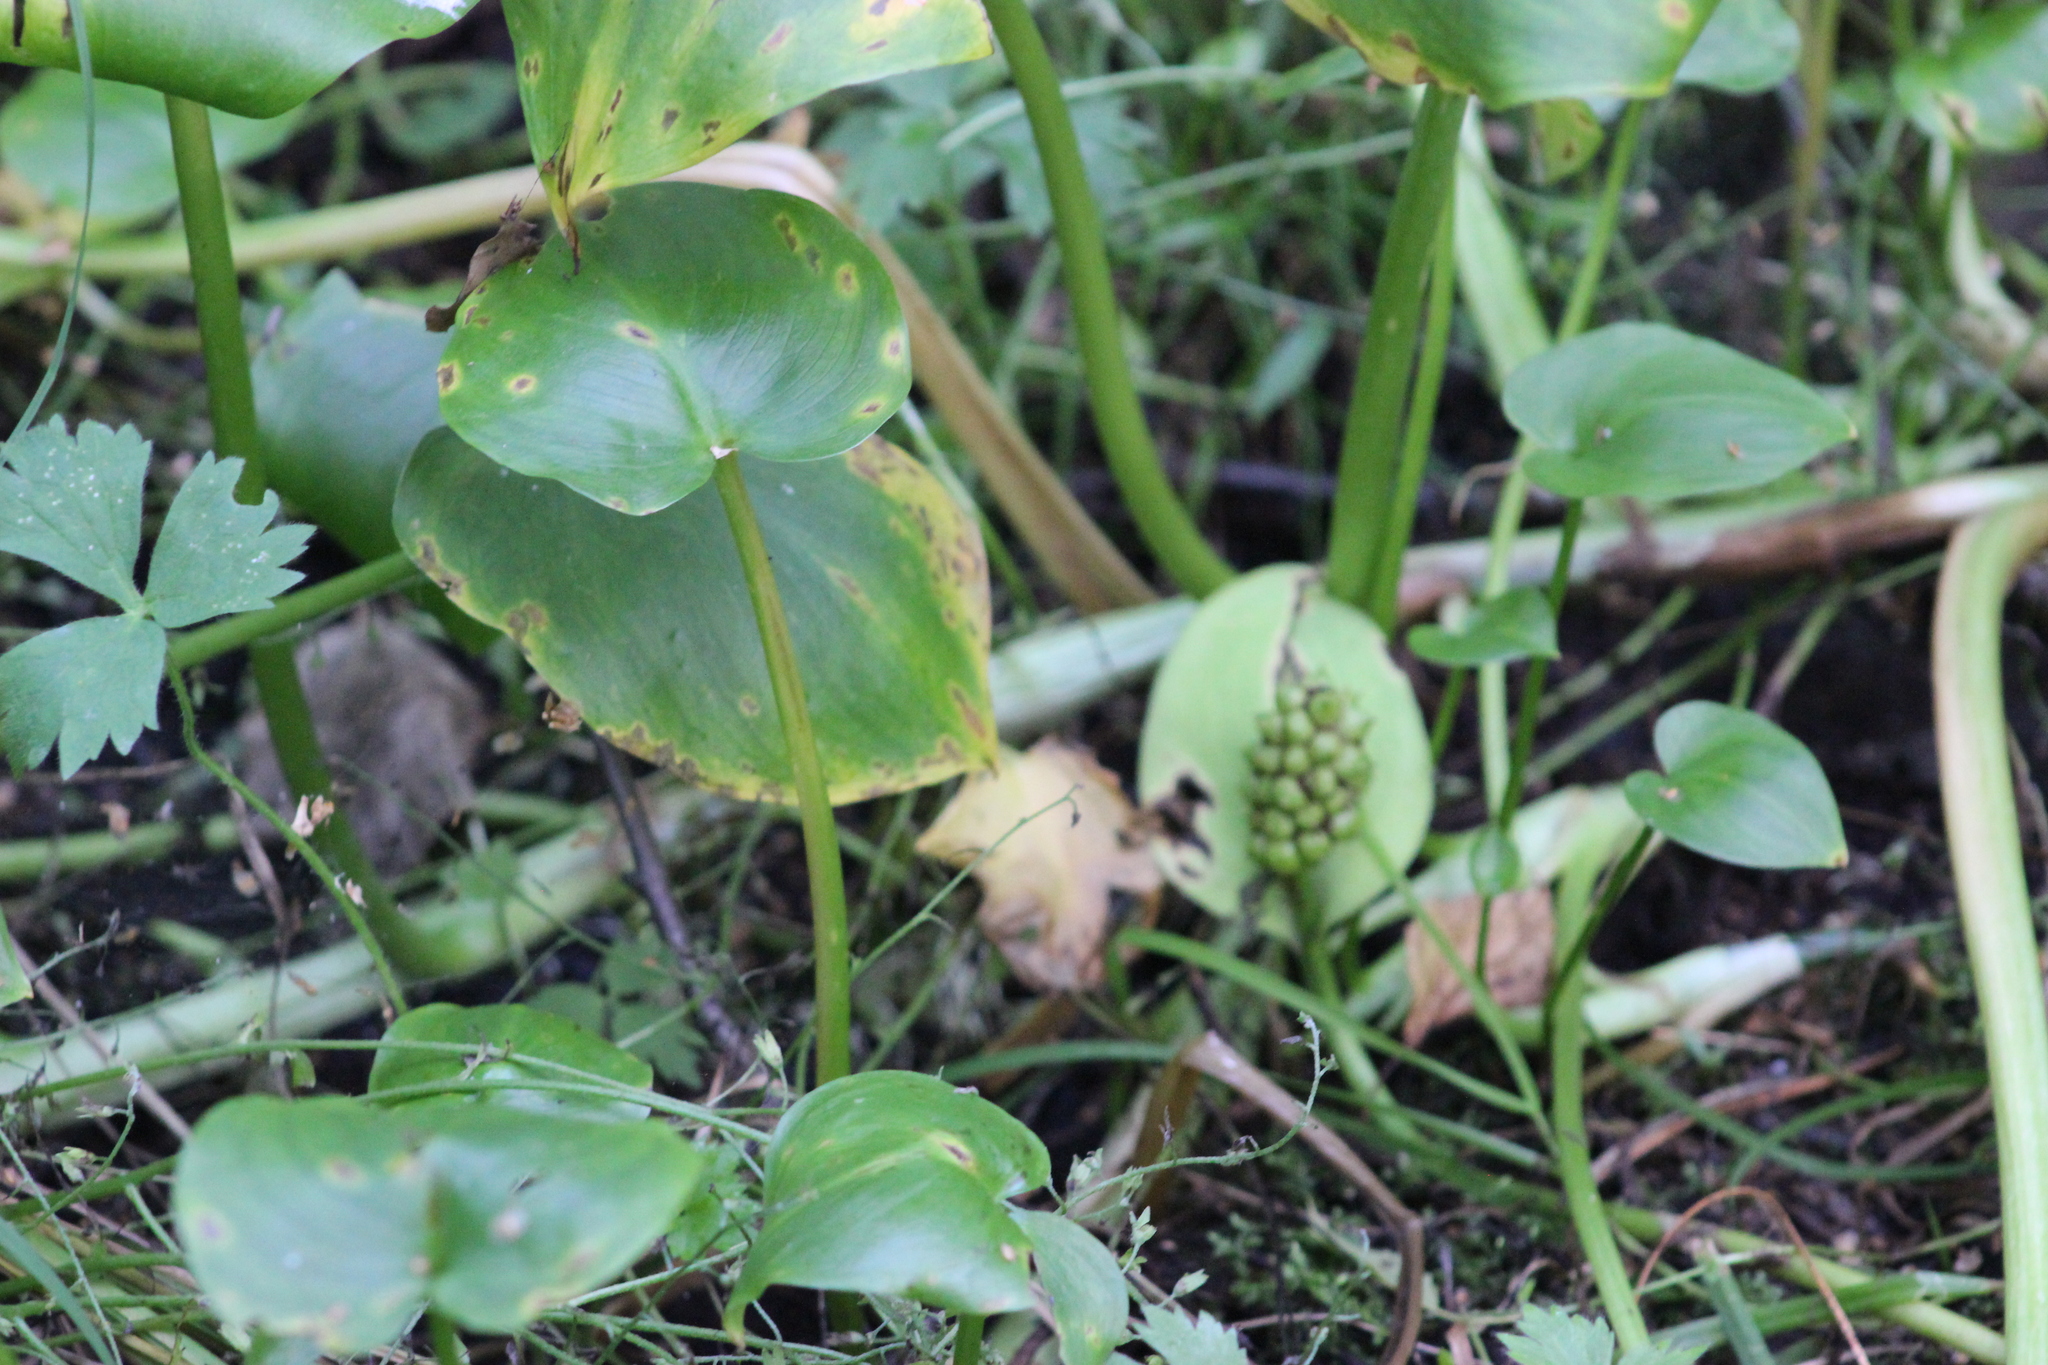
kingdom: Plantae
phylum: Tracheophyta
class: Liliopsida
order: Alismatales
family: Araceae
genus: Calla
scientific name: Calla palustris
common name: Bog arum
